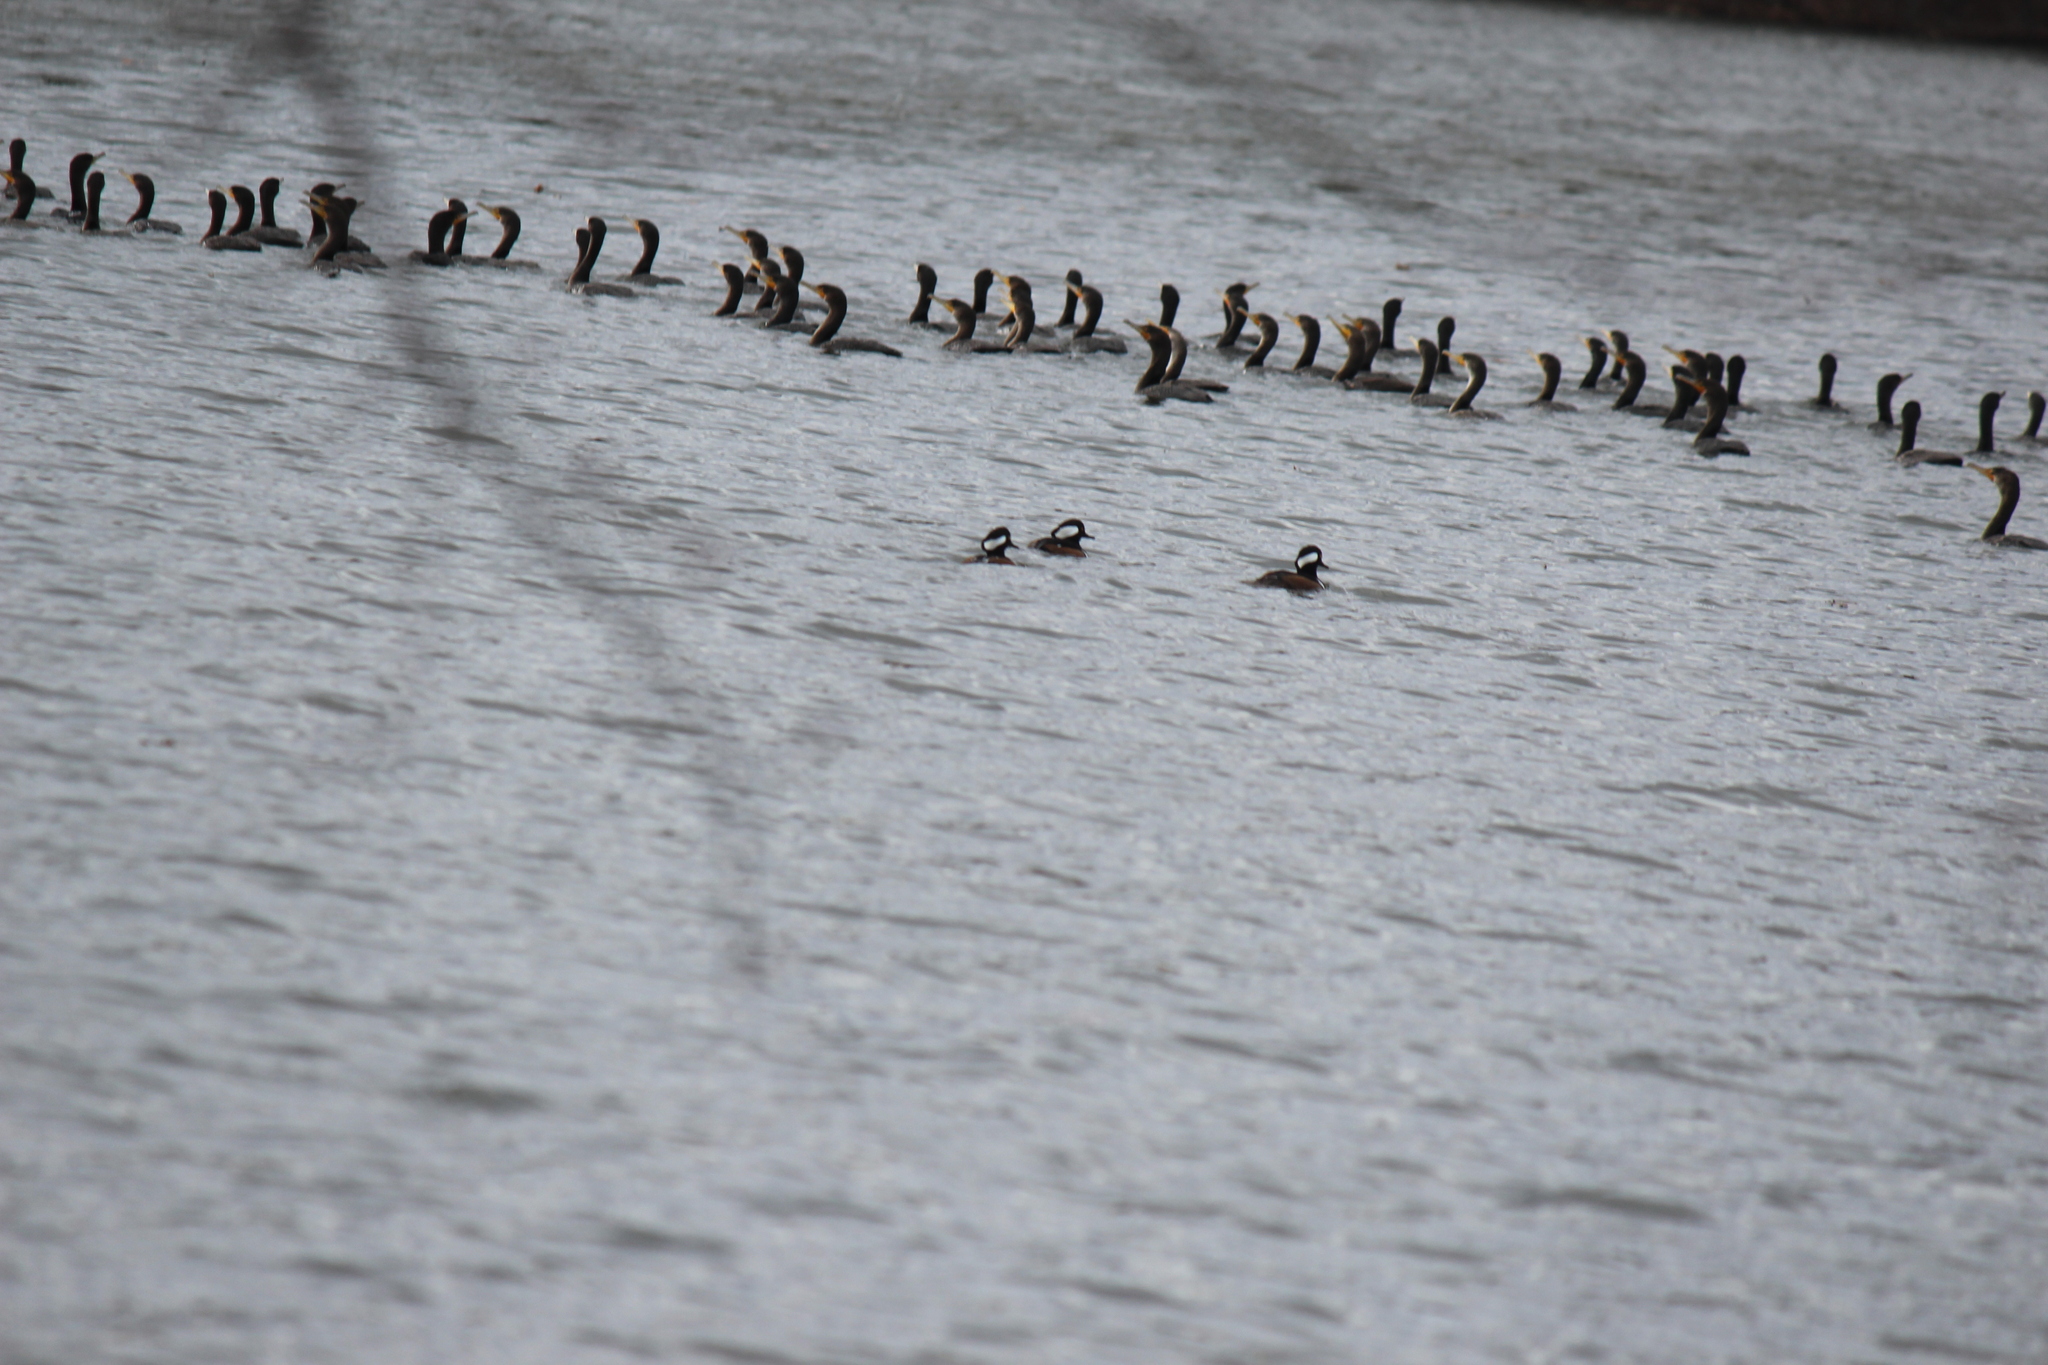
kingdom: Animalia
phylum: Chordata
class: Aves
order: Suliformes
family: Phalacrocoracidae
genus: Phalacrocorax
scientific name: Phalacrocorax auritus
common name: Double-crested cormorant
